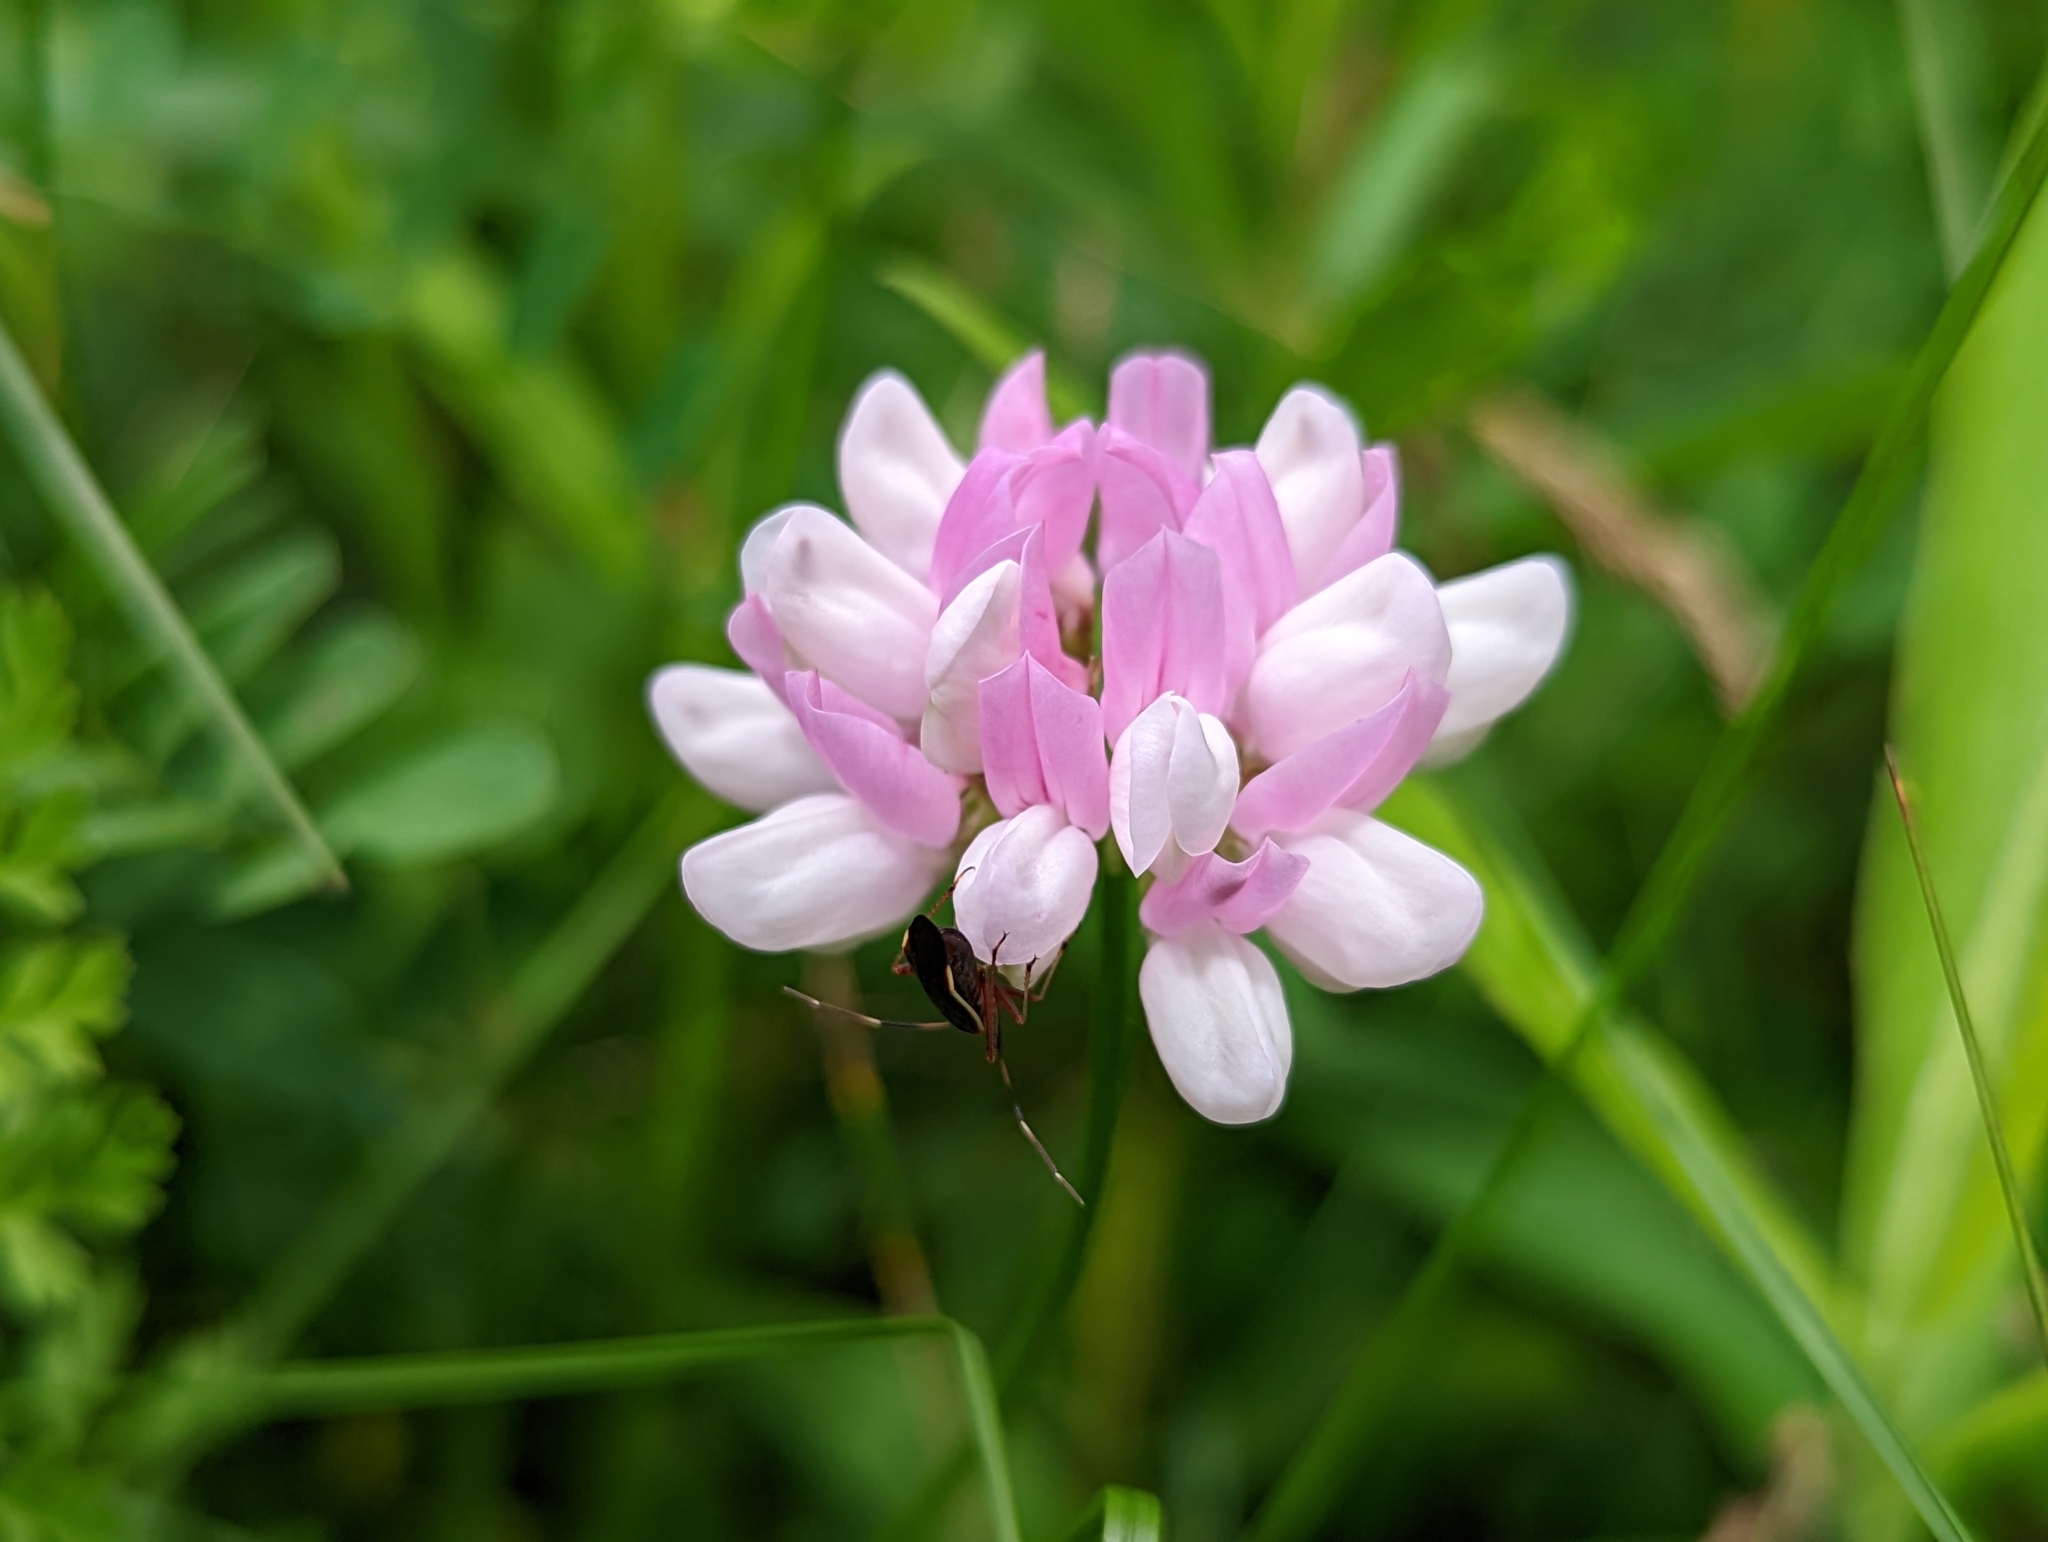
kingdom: Plantae
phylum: Tracheophyta
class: Magnoliopsida
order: Fabales
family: Fabaceae
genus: Coronilla
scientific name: Coronilla varia
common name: Crownvetch
